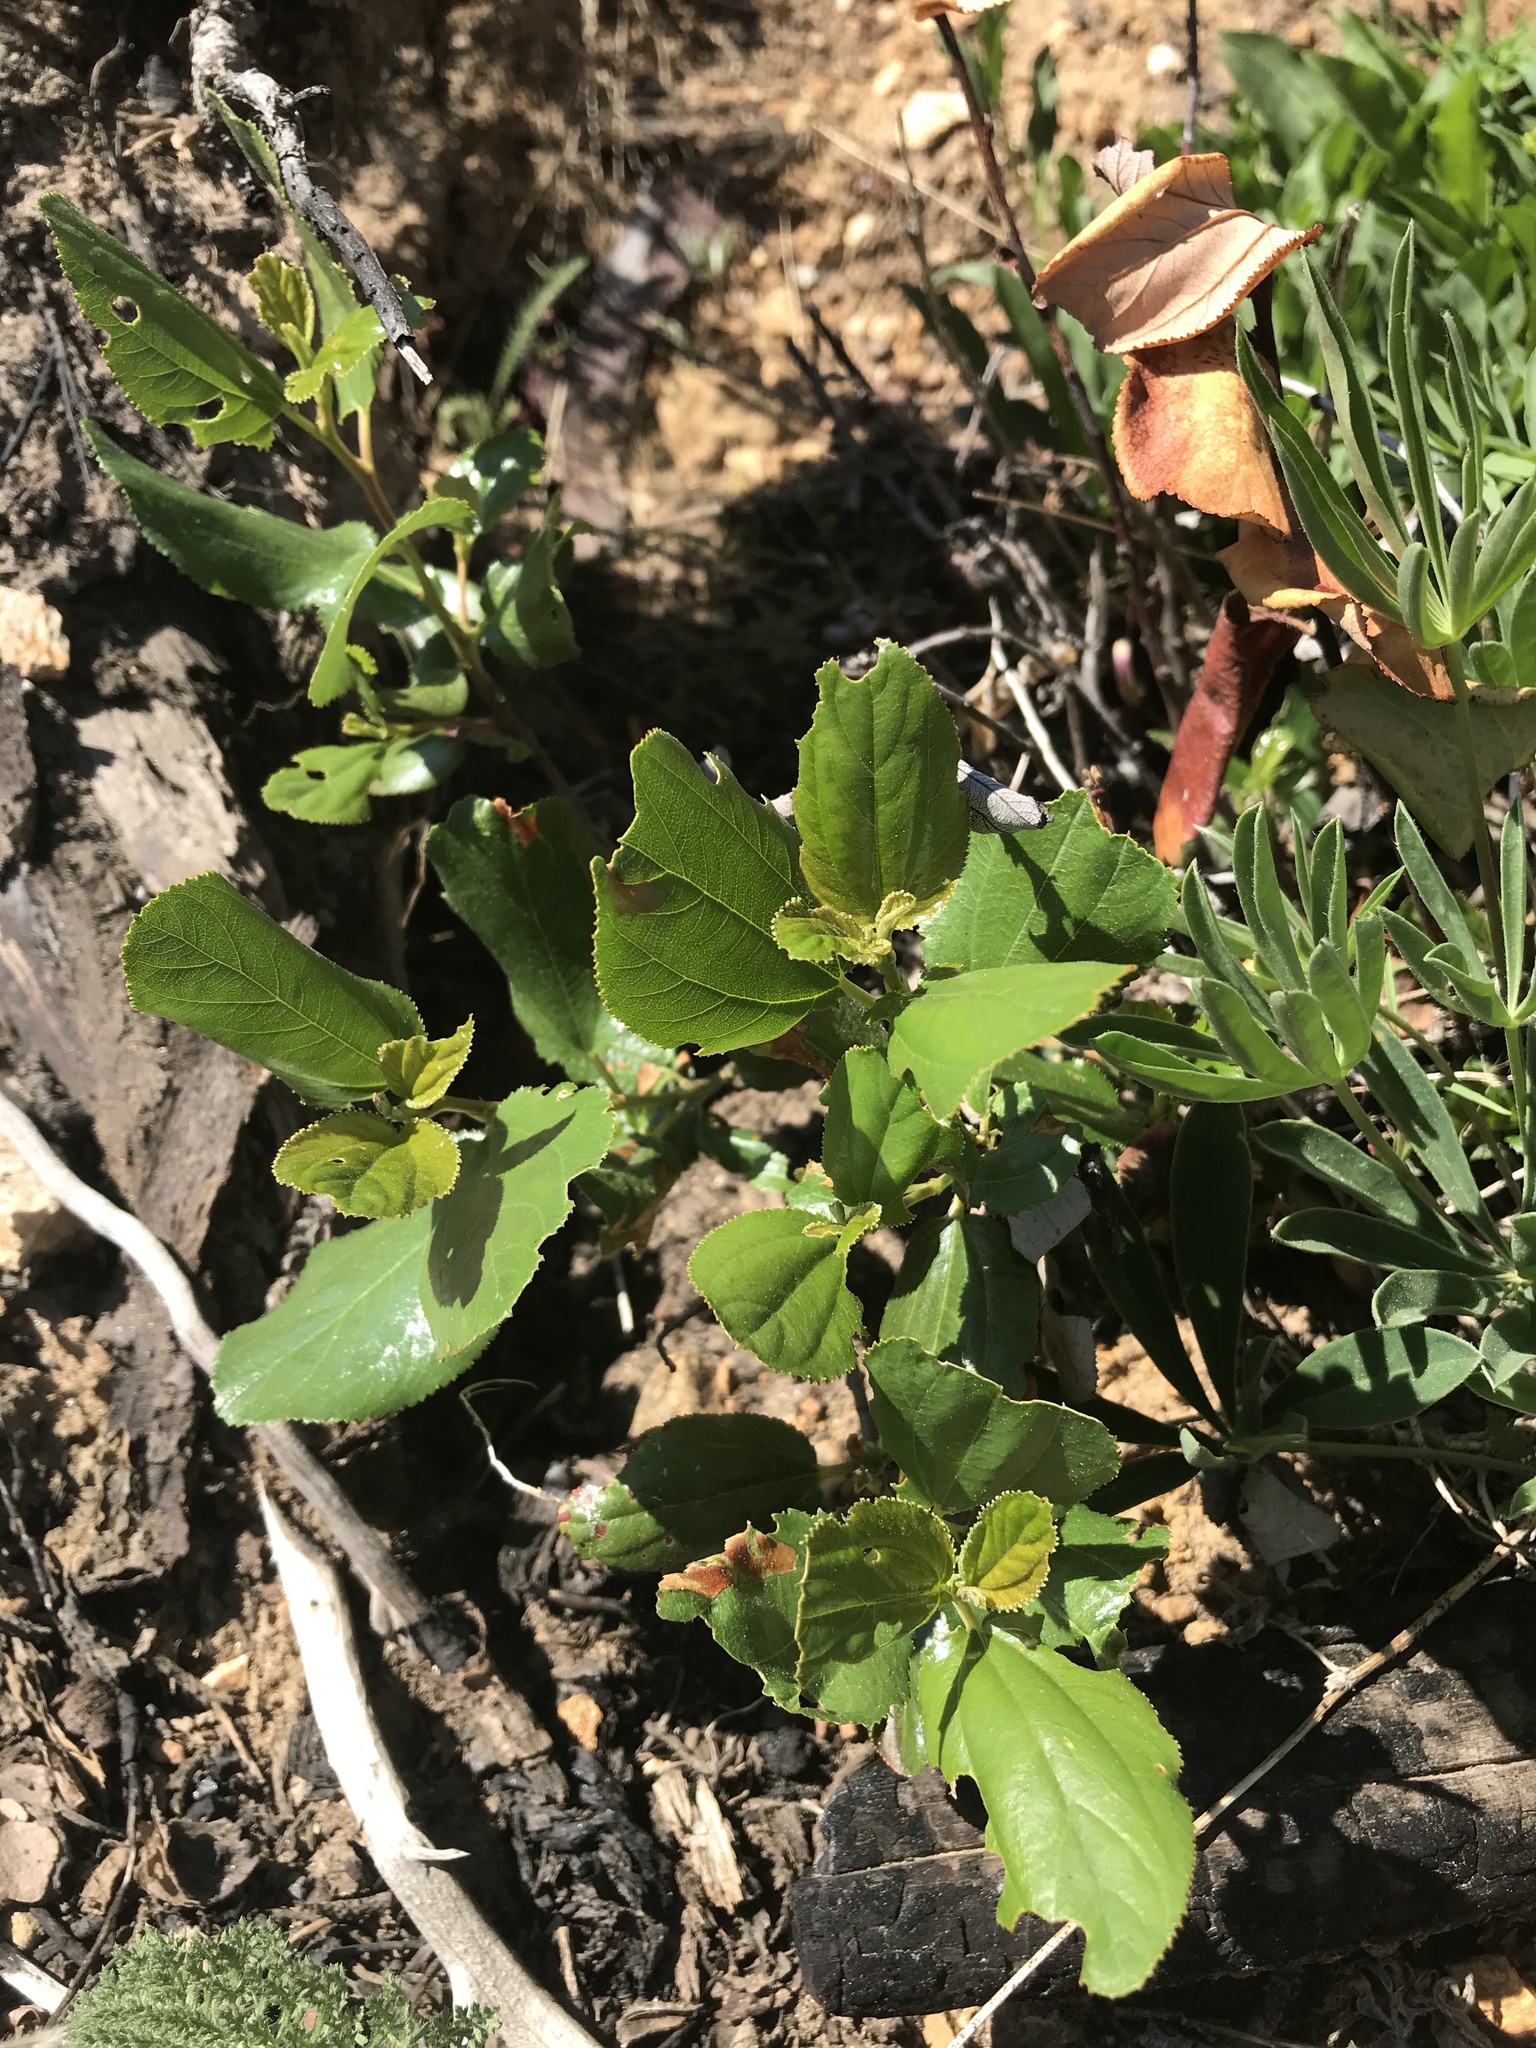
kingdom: Plantae
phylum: Tracheophyta
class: Magnoliopsida
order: Rosales
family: Rhamnaceae
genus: Ceanothus
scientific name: Ceanothus velutinus
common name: Snowbrush
